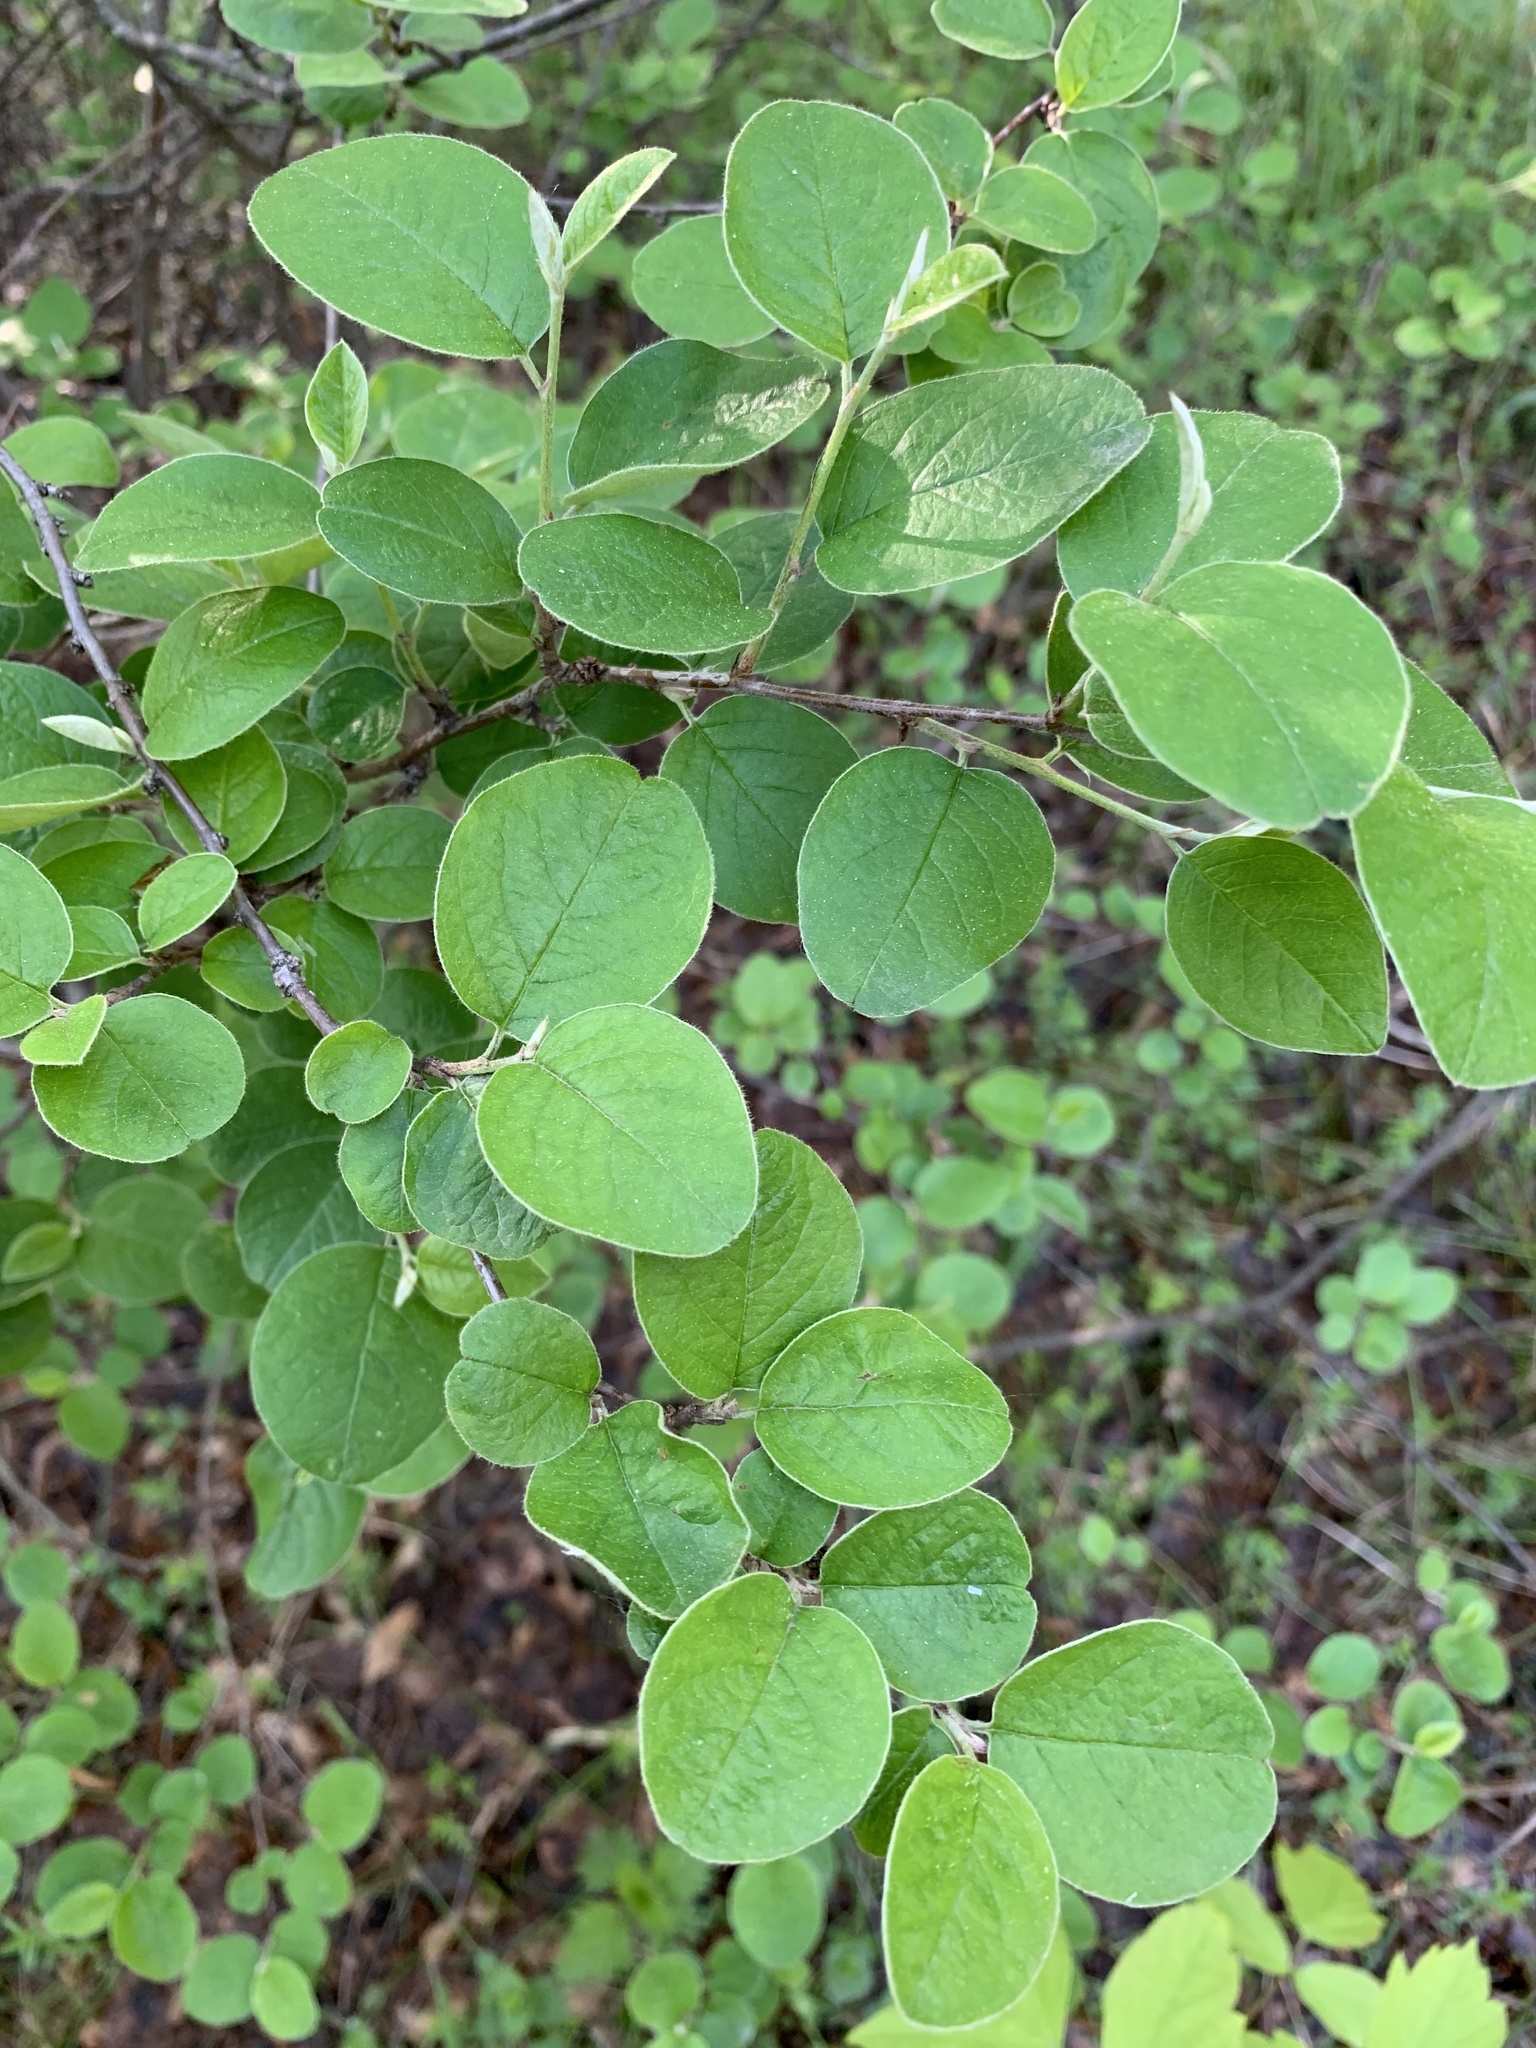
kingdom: Plantae
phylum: Tracheophyta
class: Magnoliopsida
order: Rosales
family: Rosaceae
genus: Cotoneaster
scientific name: Cotoneaster melanocarpus
